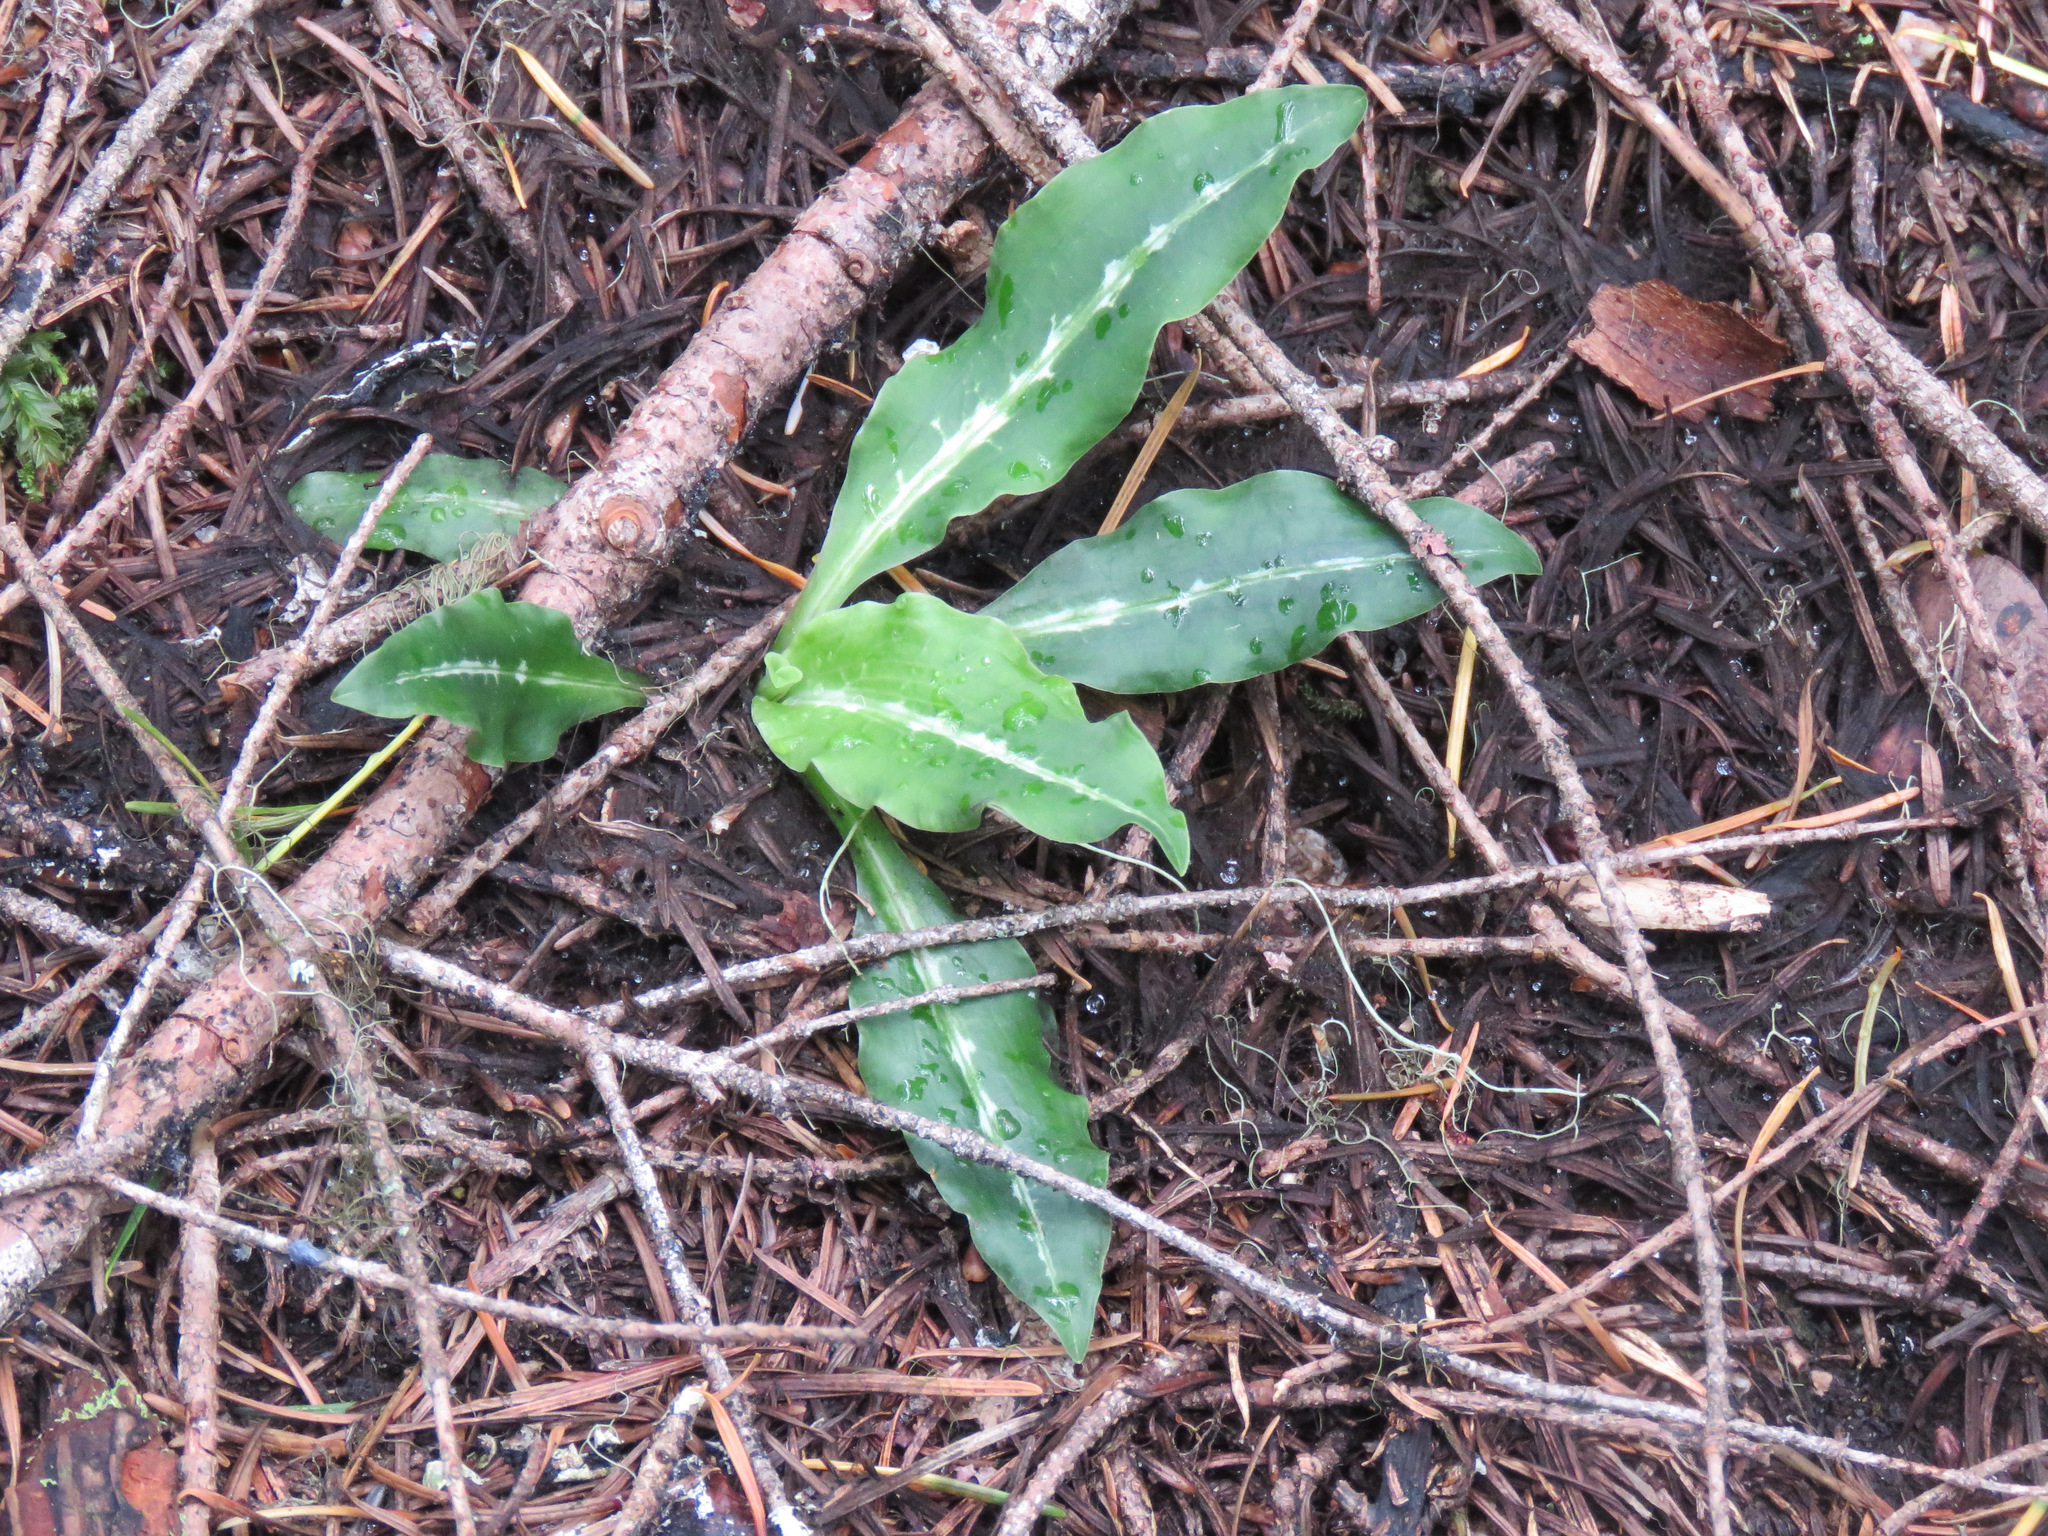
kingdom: Plantae
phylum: Tracheophyta
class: Liliopsida
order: Asparagales
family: Orchidaceae
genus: Goodyera
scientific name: Goodyera oblongifolia
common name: Giant rattlesnake-plantain
